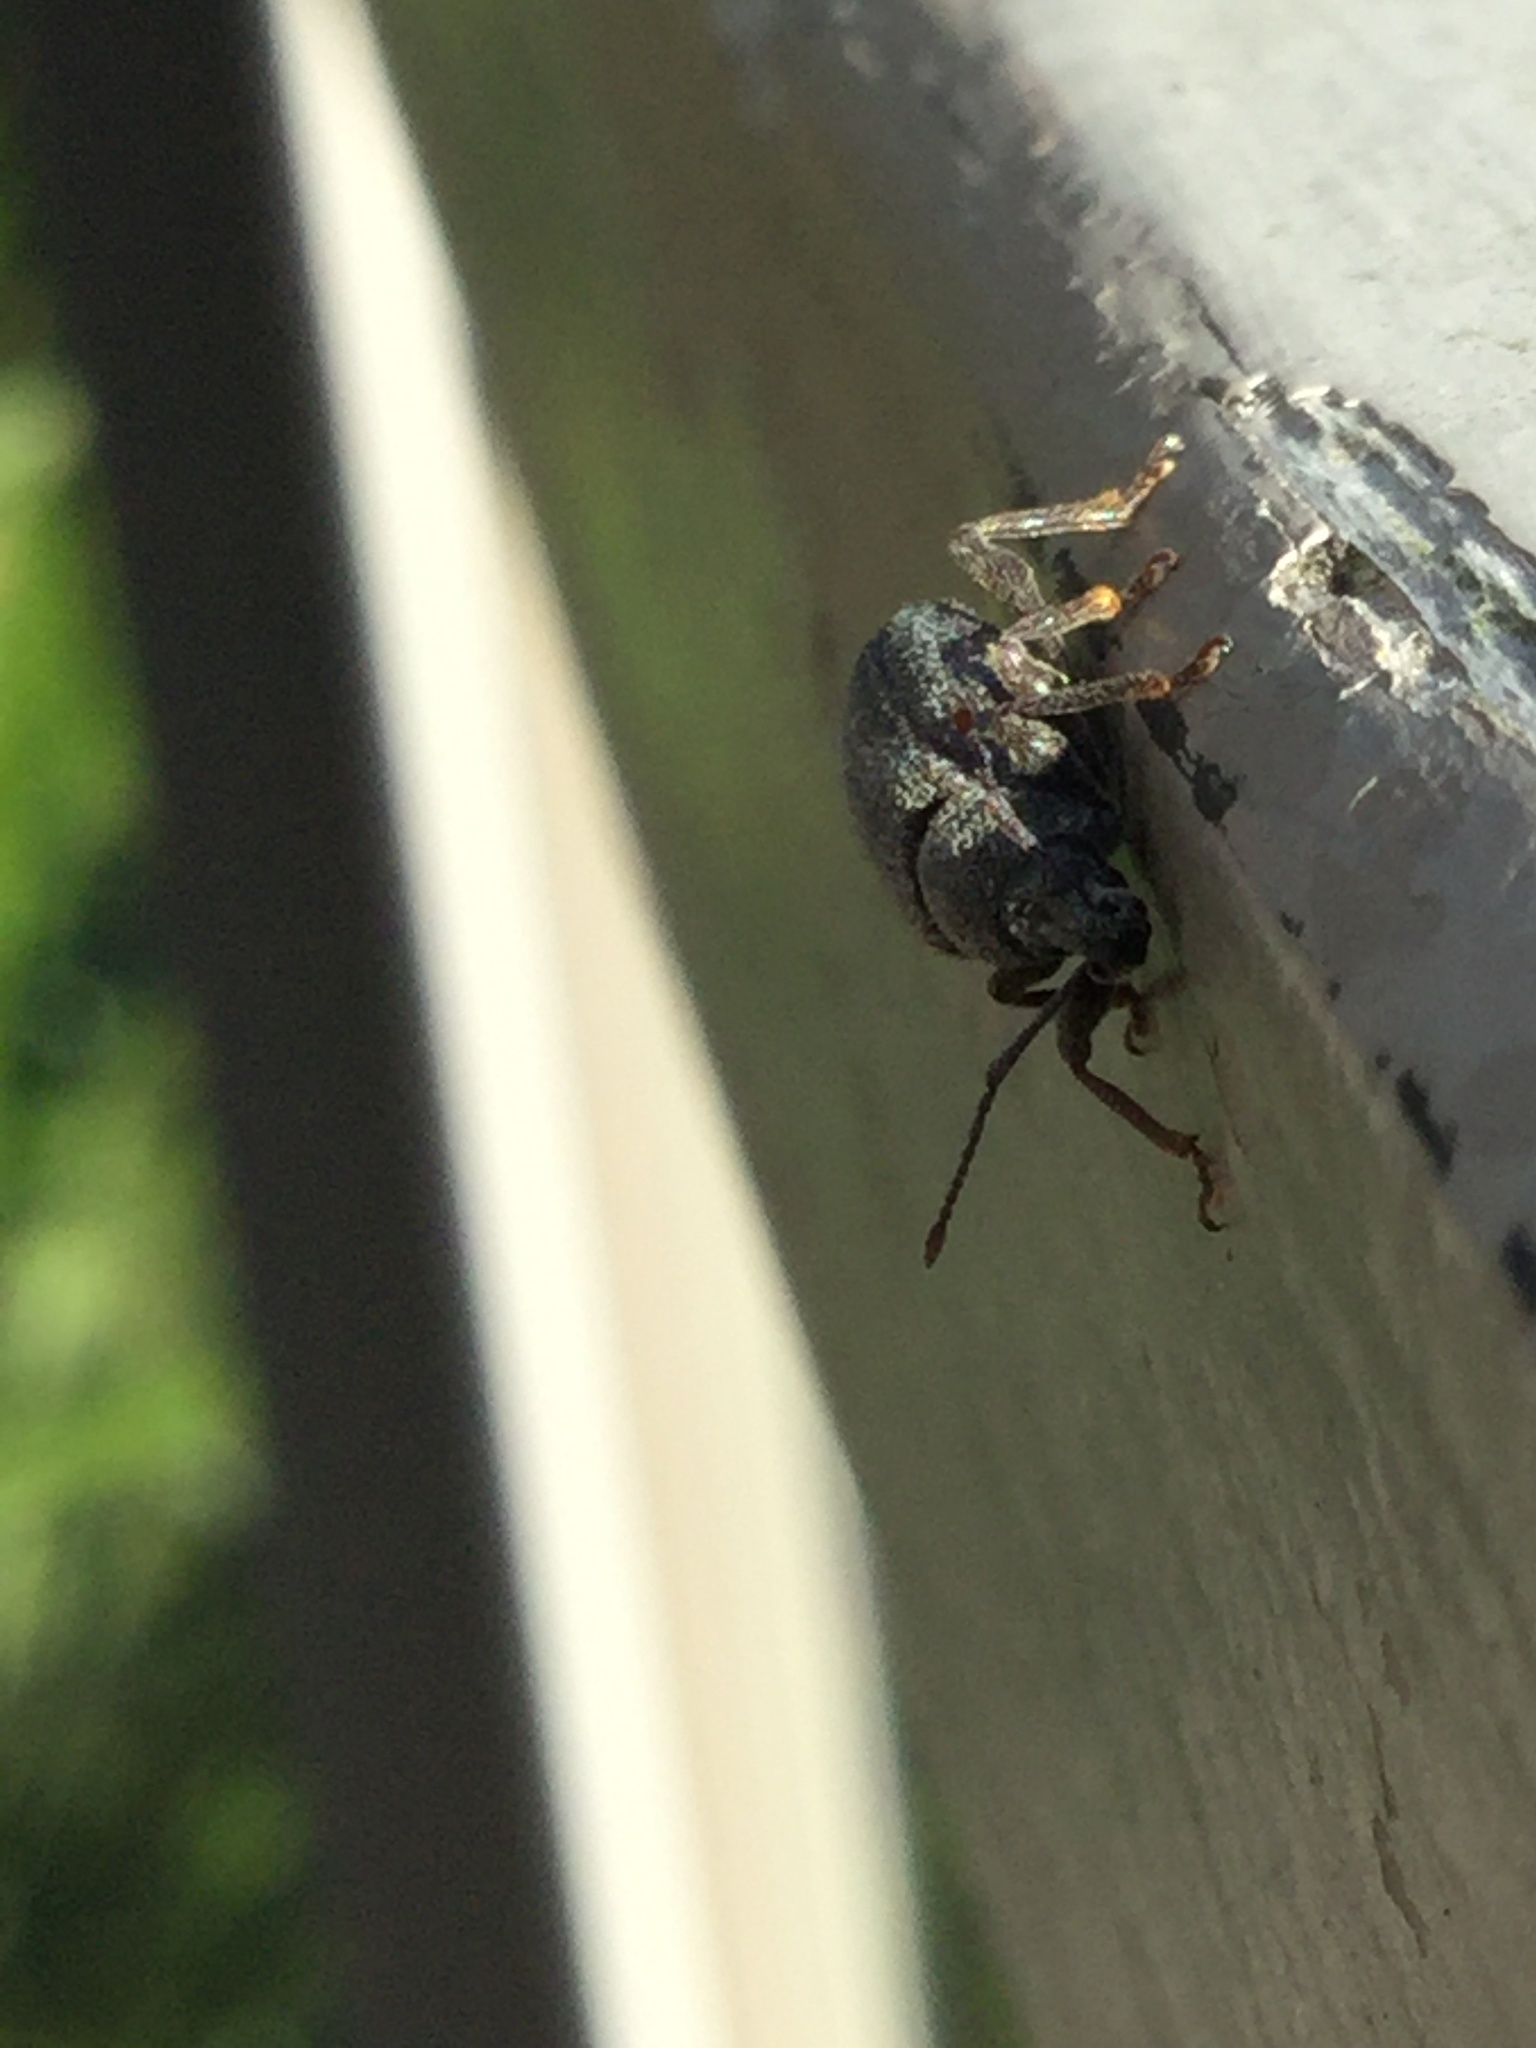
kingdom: Animalia
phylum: Arthropoda
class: Insecta
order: Coleoptera
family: Curculionidae
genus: Otiorhynchus
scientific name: Otiorhynchus rugosostriatus
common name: Weevil
